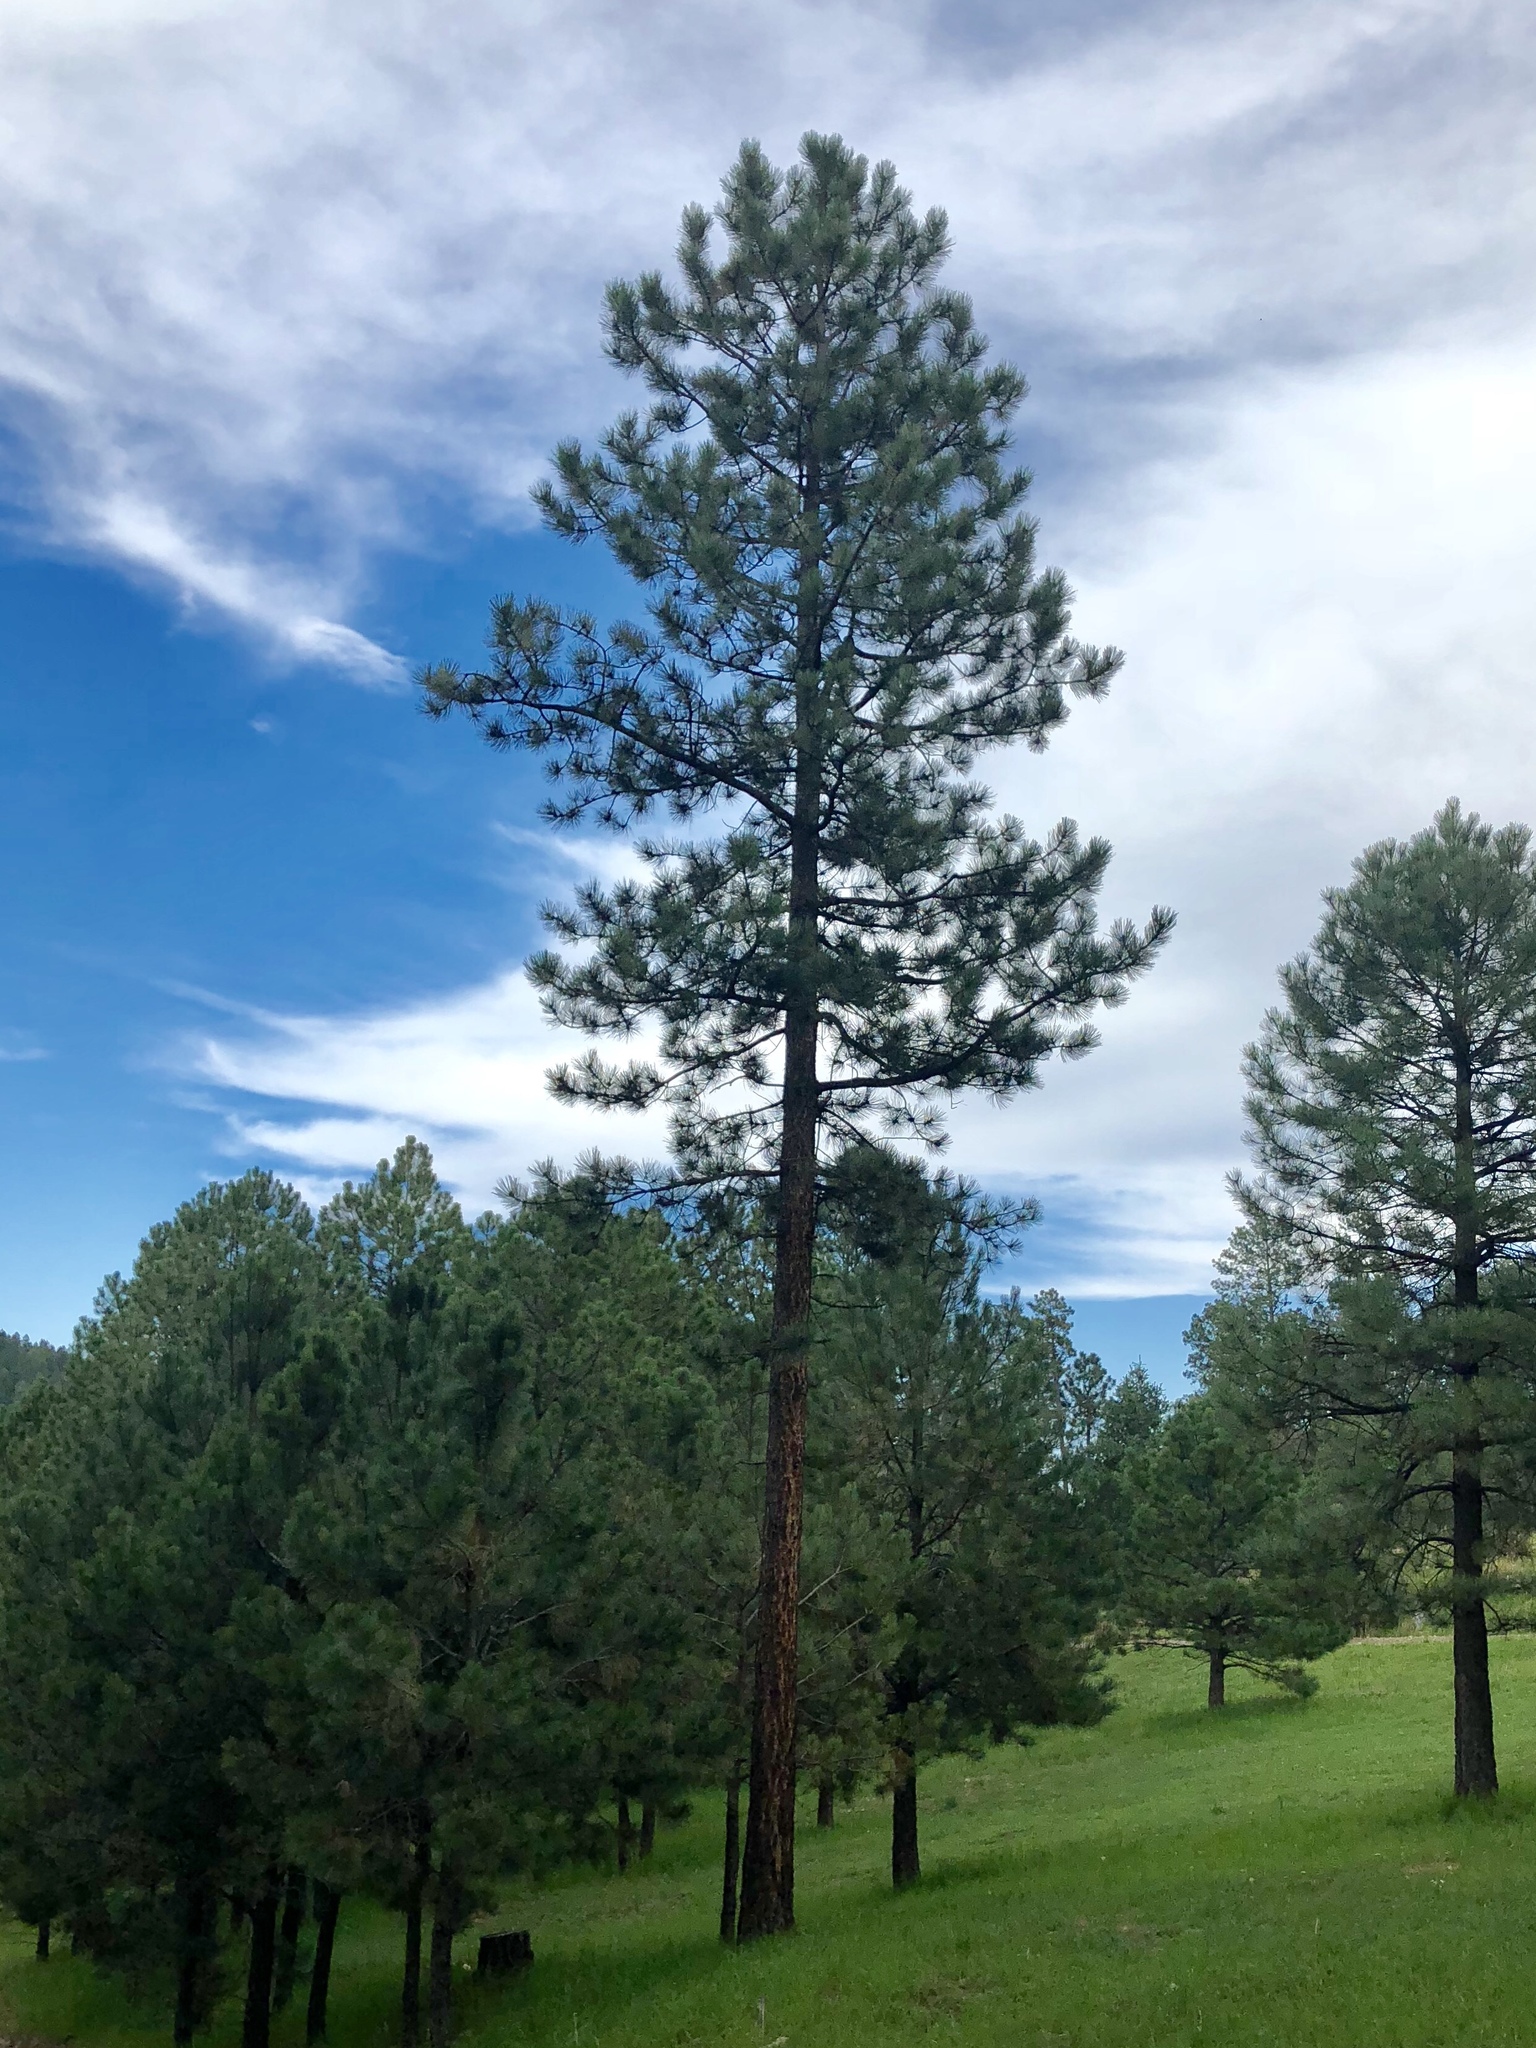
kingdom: Plantae
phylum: Tracheophyta
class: Pinopsida
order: Pinales
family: Pinaceae
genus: Pinus
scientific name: Pinus ponderosa
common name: Western yellow-pine
